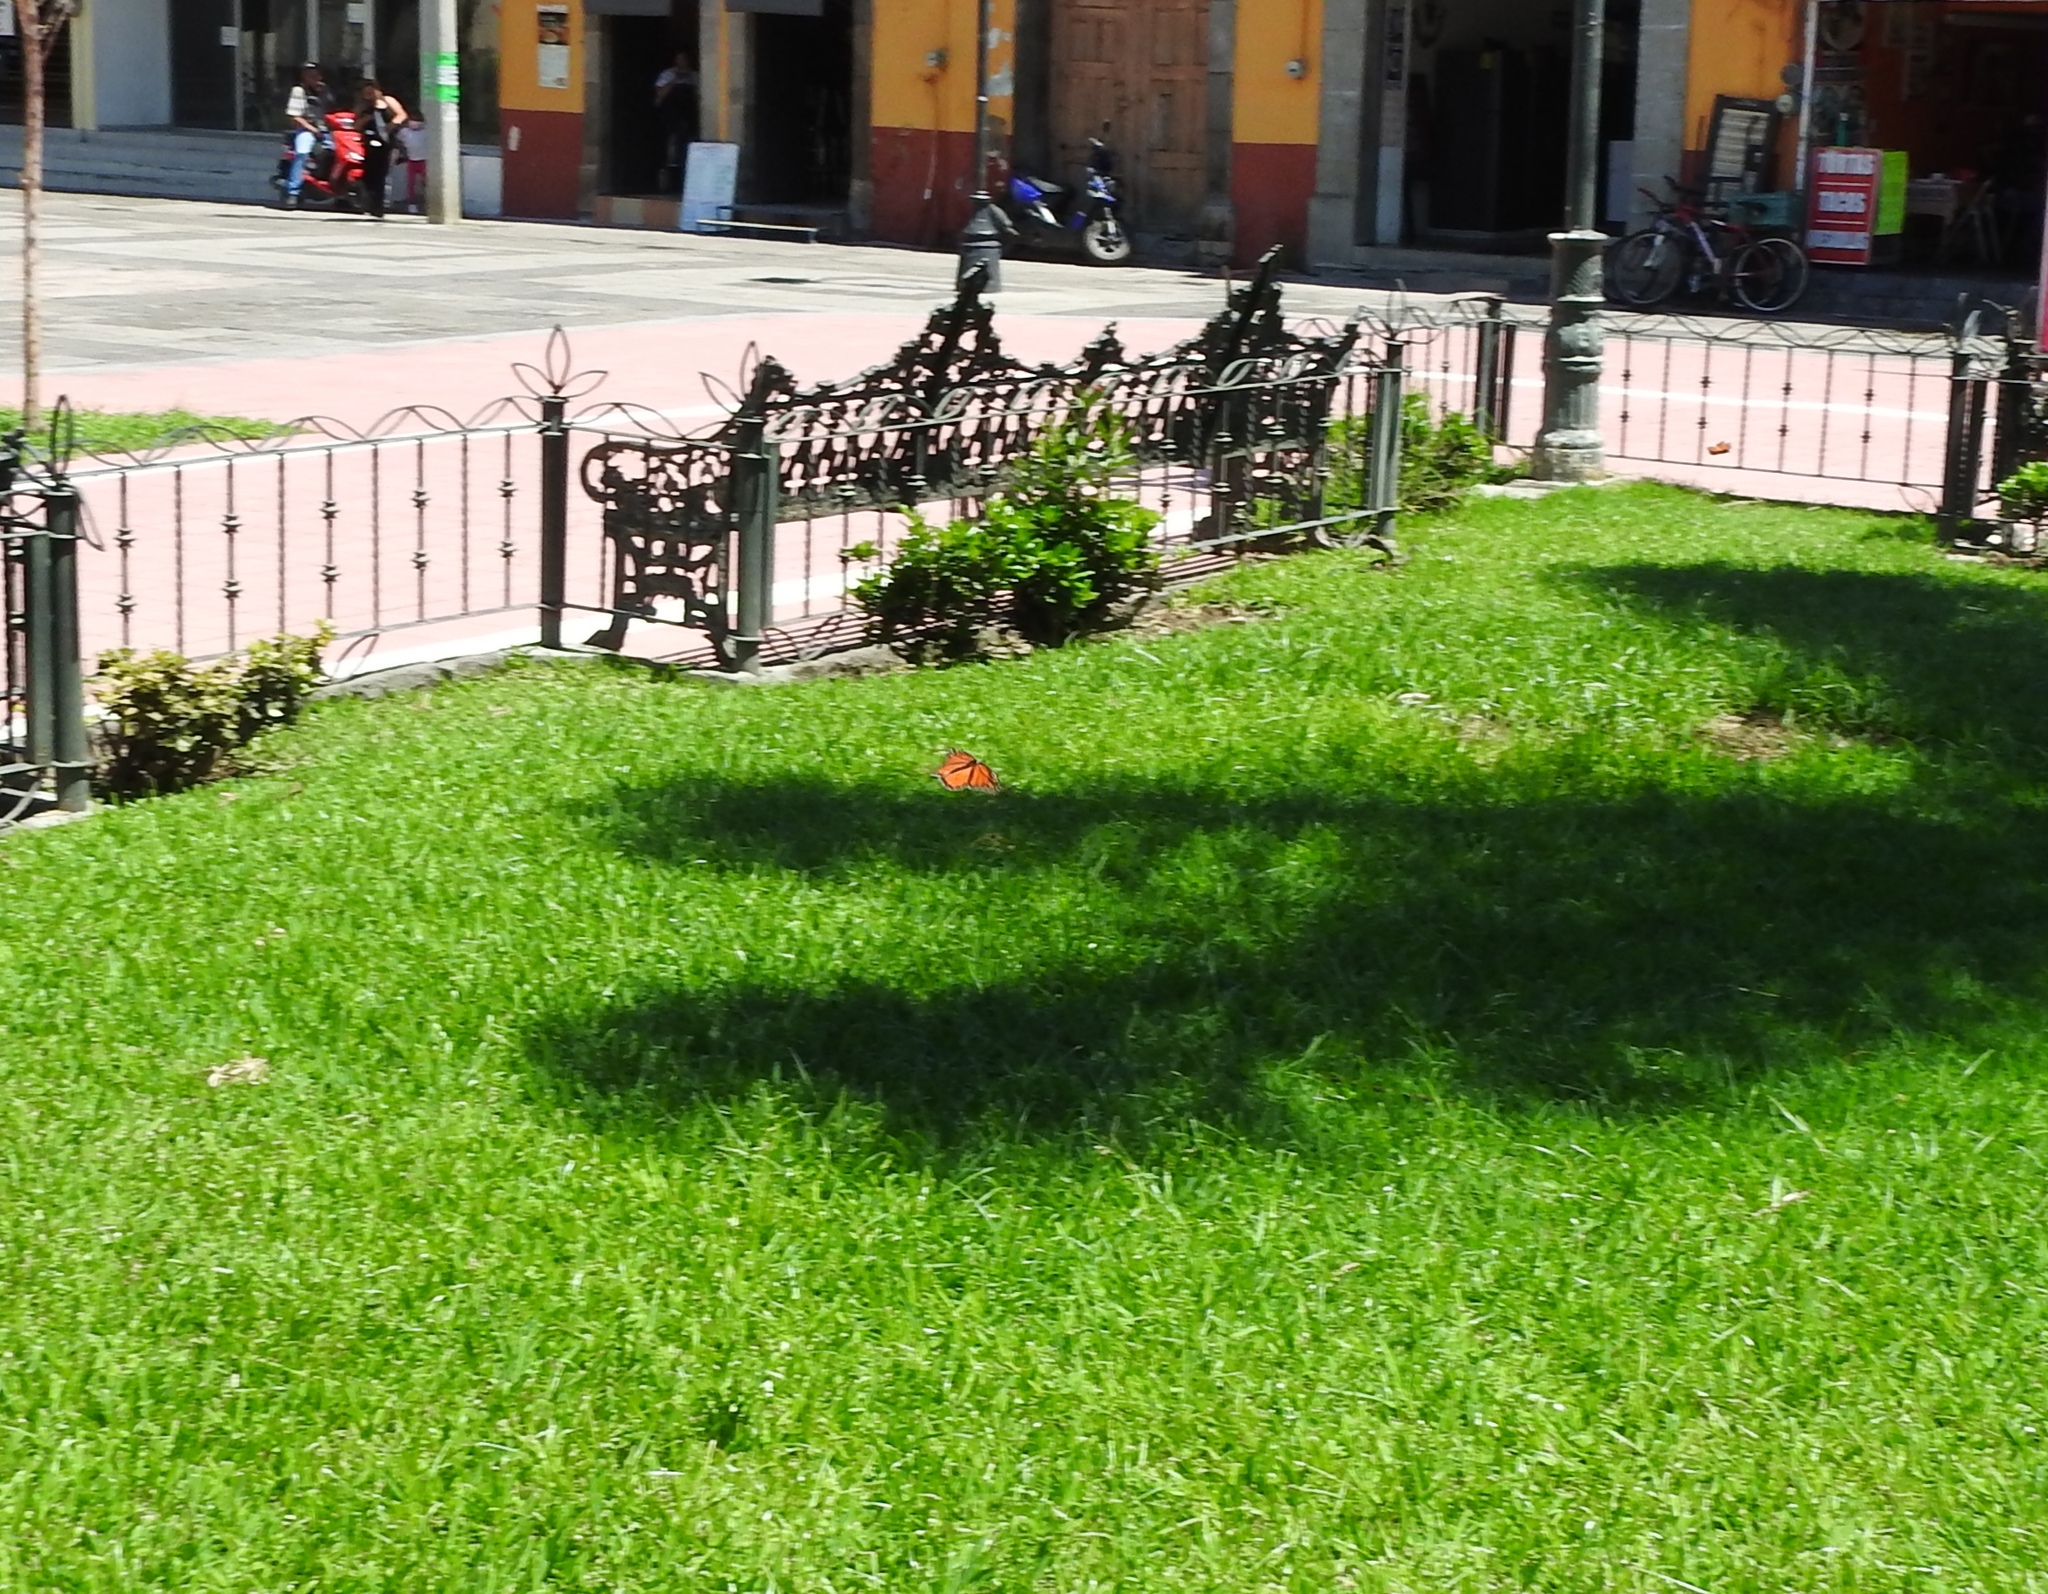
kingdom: Animalia
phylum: Arthropoda
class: Insecta
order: Lepidoptera
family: Nymphalidae
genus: Danaus
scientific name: Danaus plexippus
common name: Monarch
